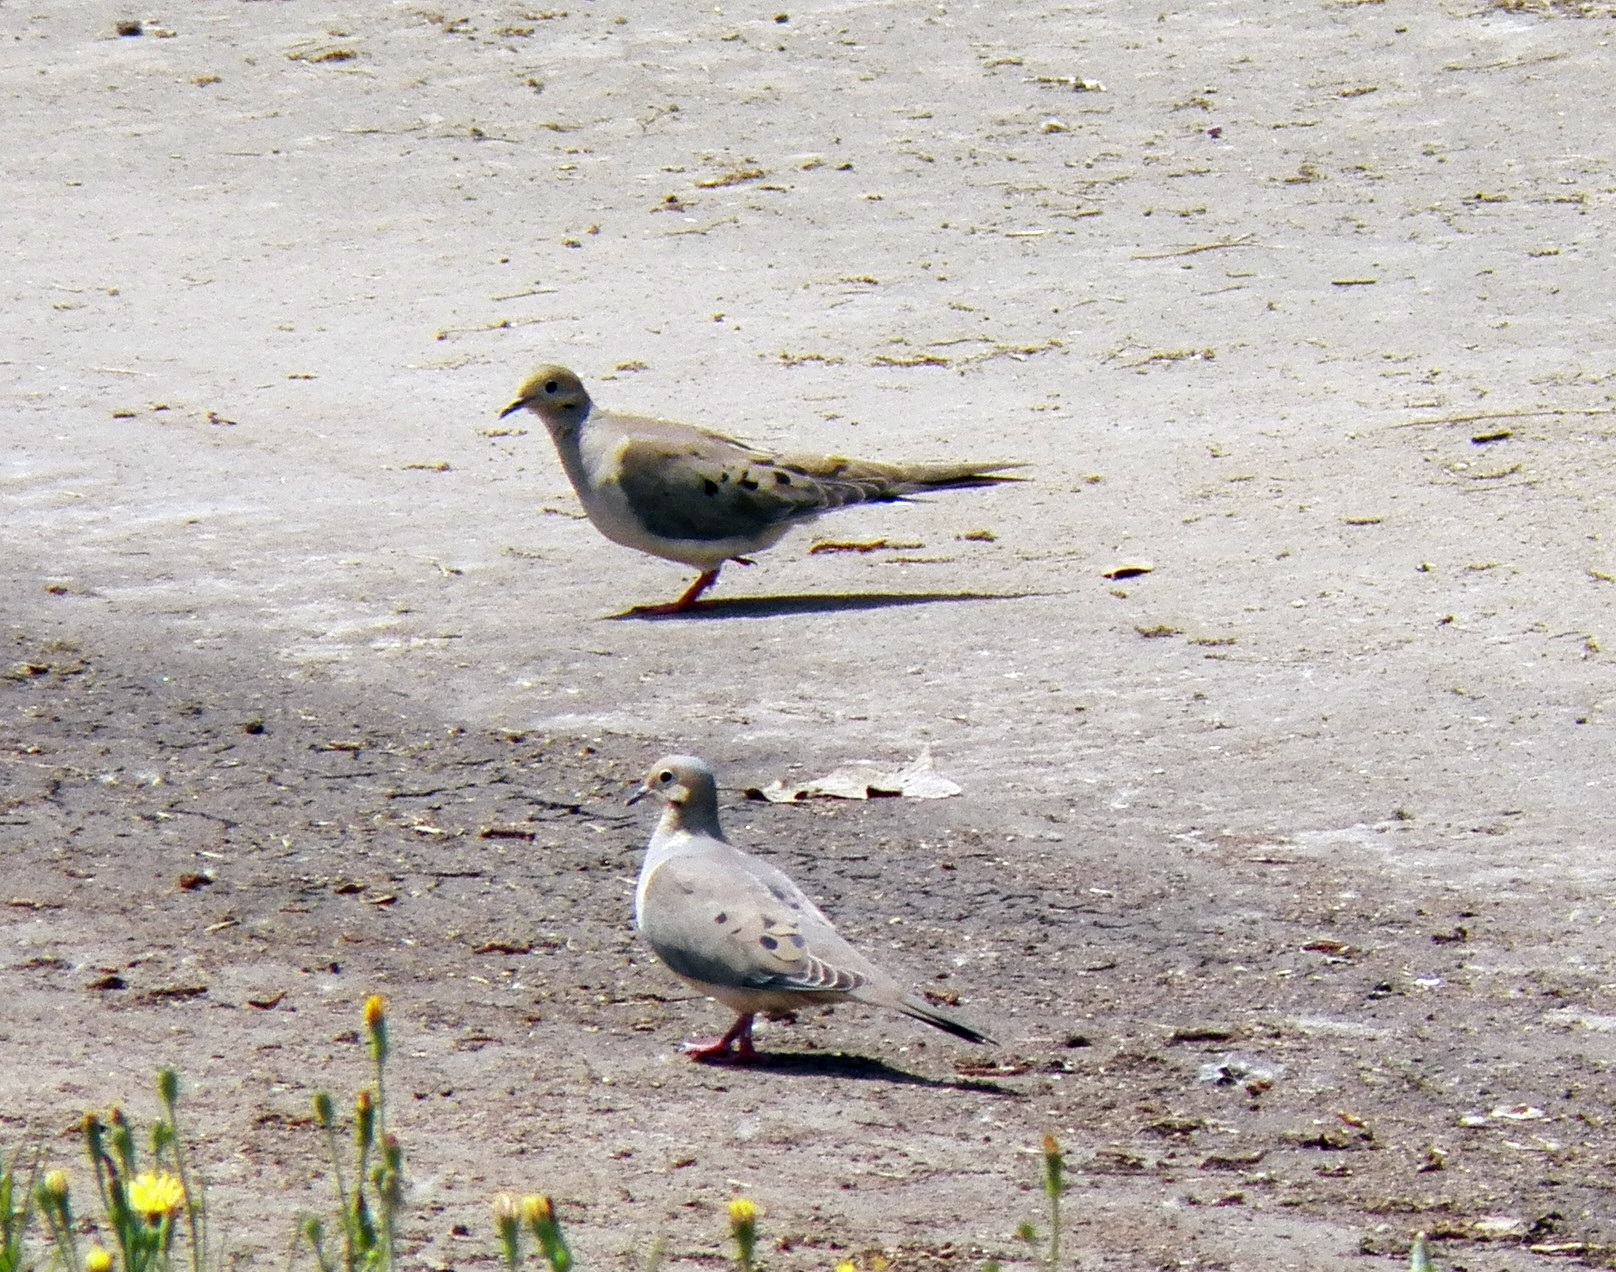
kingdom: Animalia
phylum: Chordata
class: Aves
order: Columbiformes
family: Columbidae
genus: Zenaida
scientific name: Zenaida macroura
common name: Mourning dove
